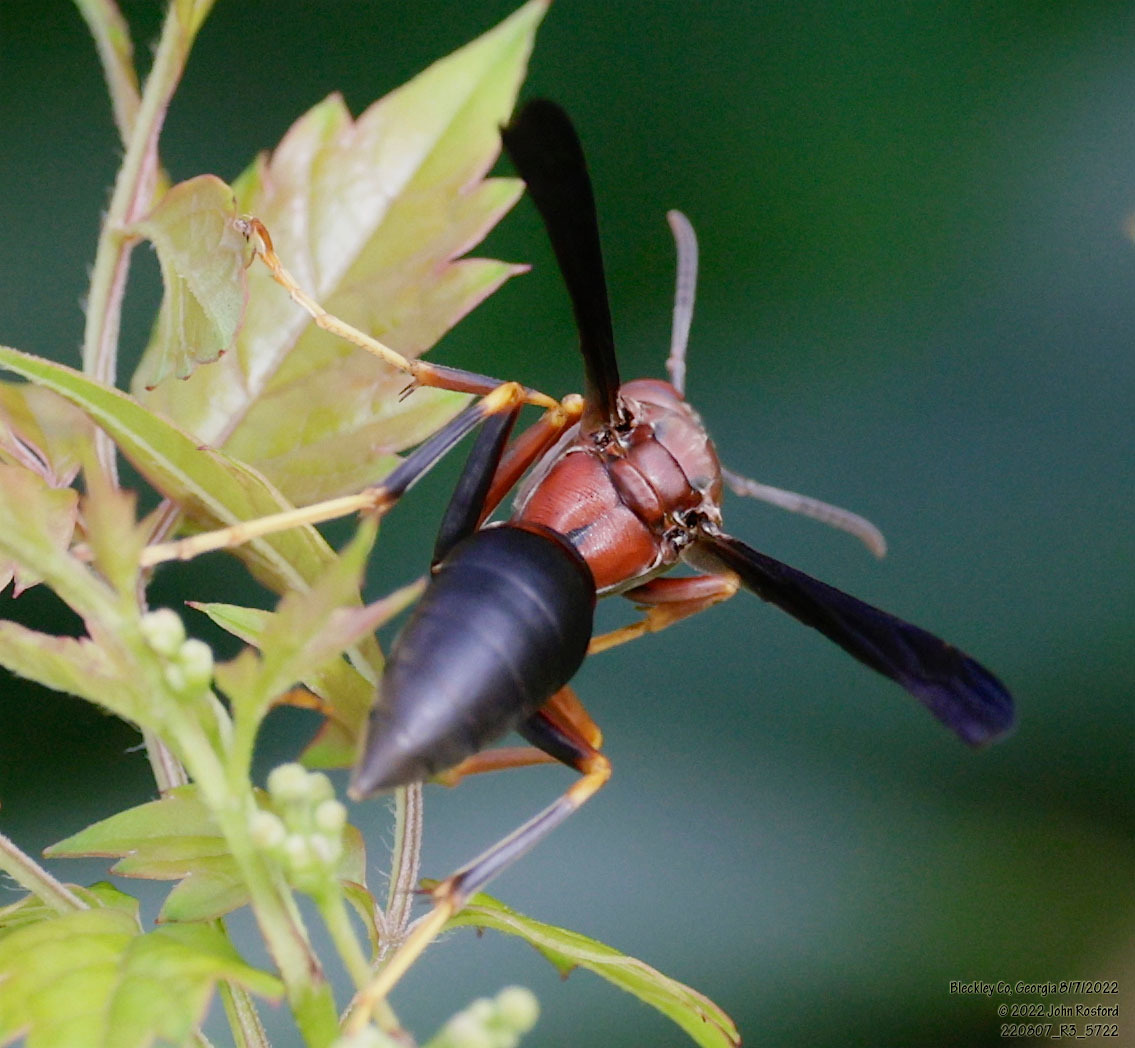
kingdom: Animalia
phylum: Arthropoda
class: Insecta
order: Hymenoptera
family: Eumenidae
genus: Polistes
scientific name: Polistes metricus
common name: Metric paper wasp
